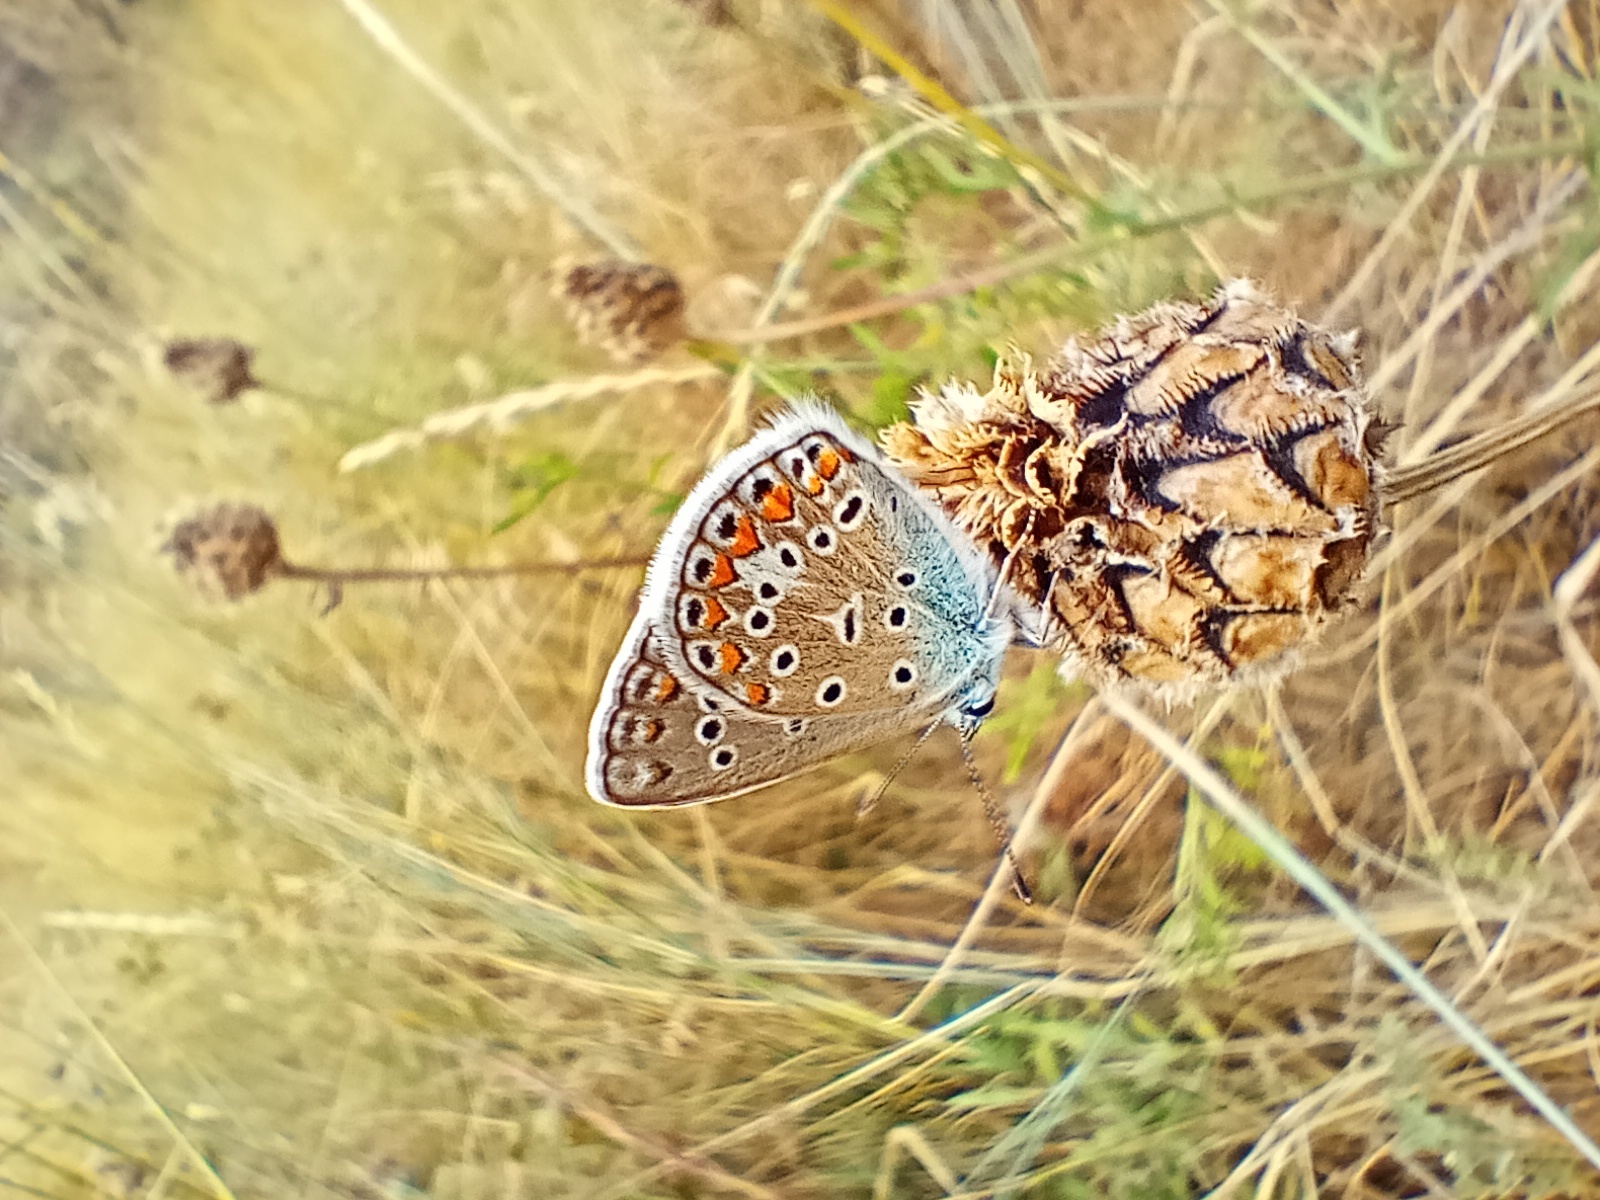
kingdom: Animalia
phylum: Arthropoda
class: Insecta
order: Lepidoptera
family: Lycaenidae
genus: Polyommatus
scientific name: Polyommatus icarus
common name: Common blue
